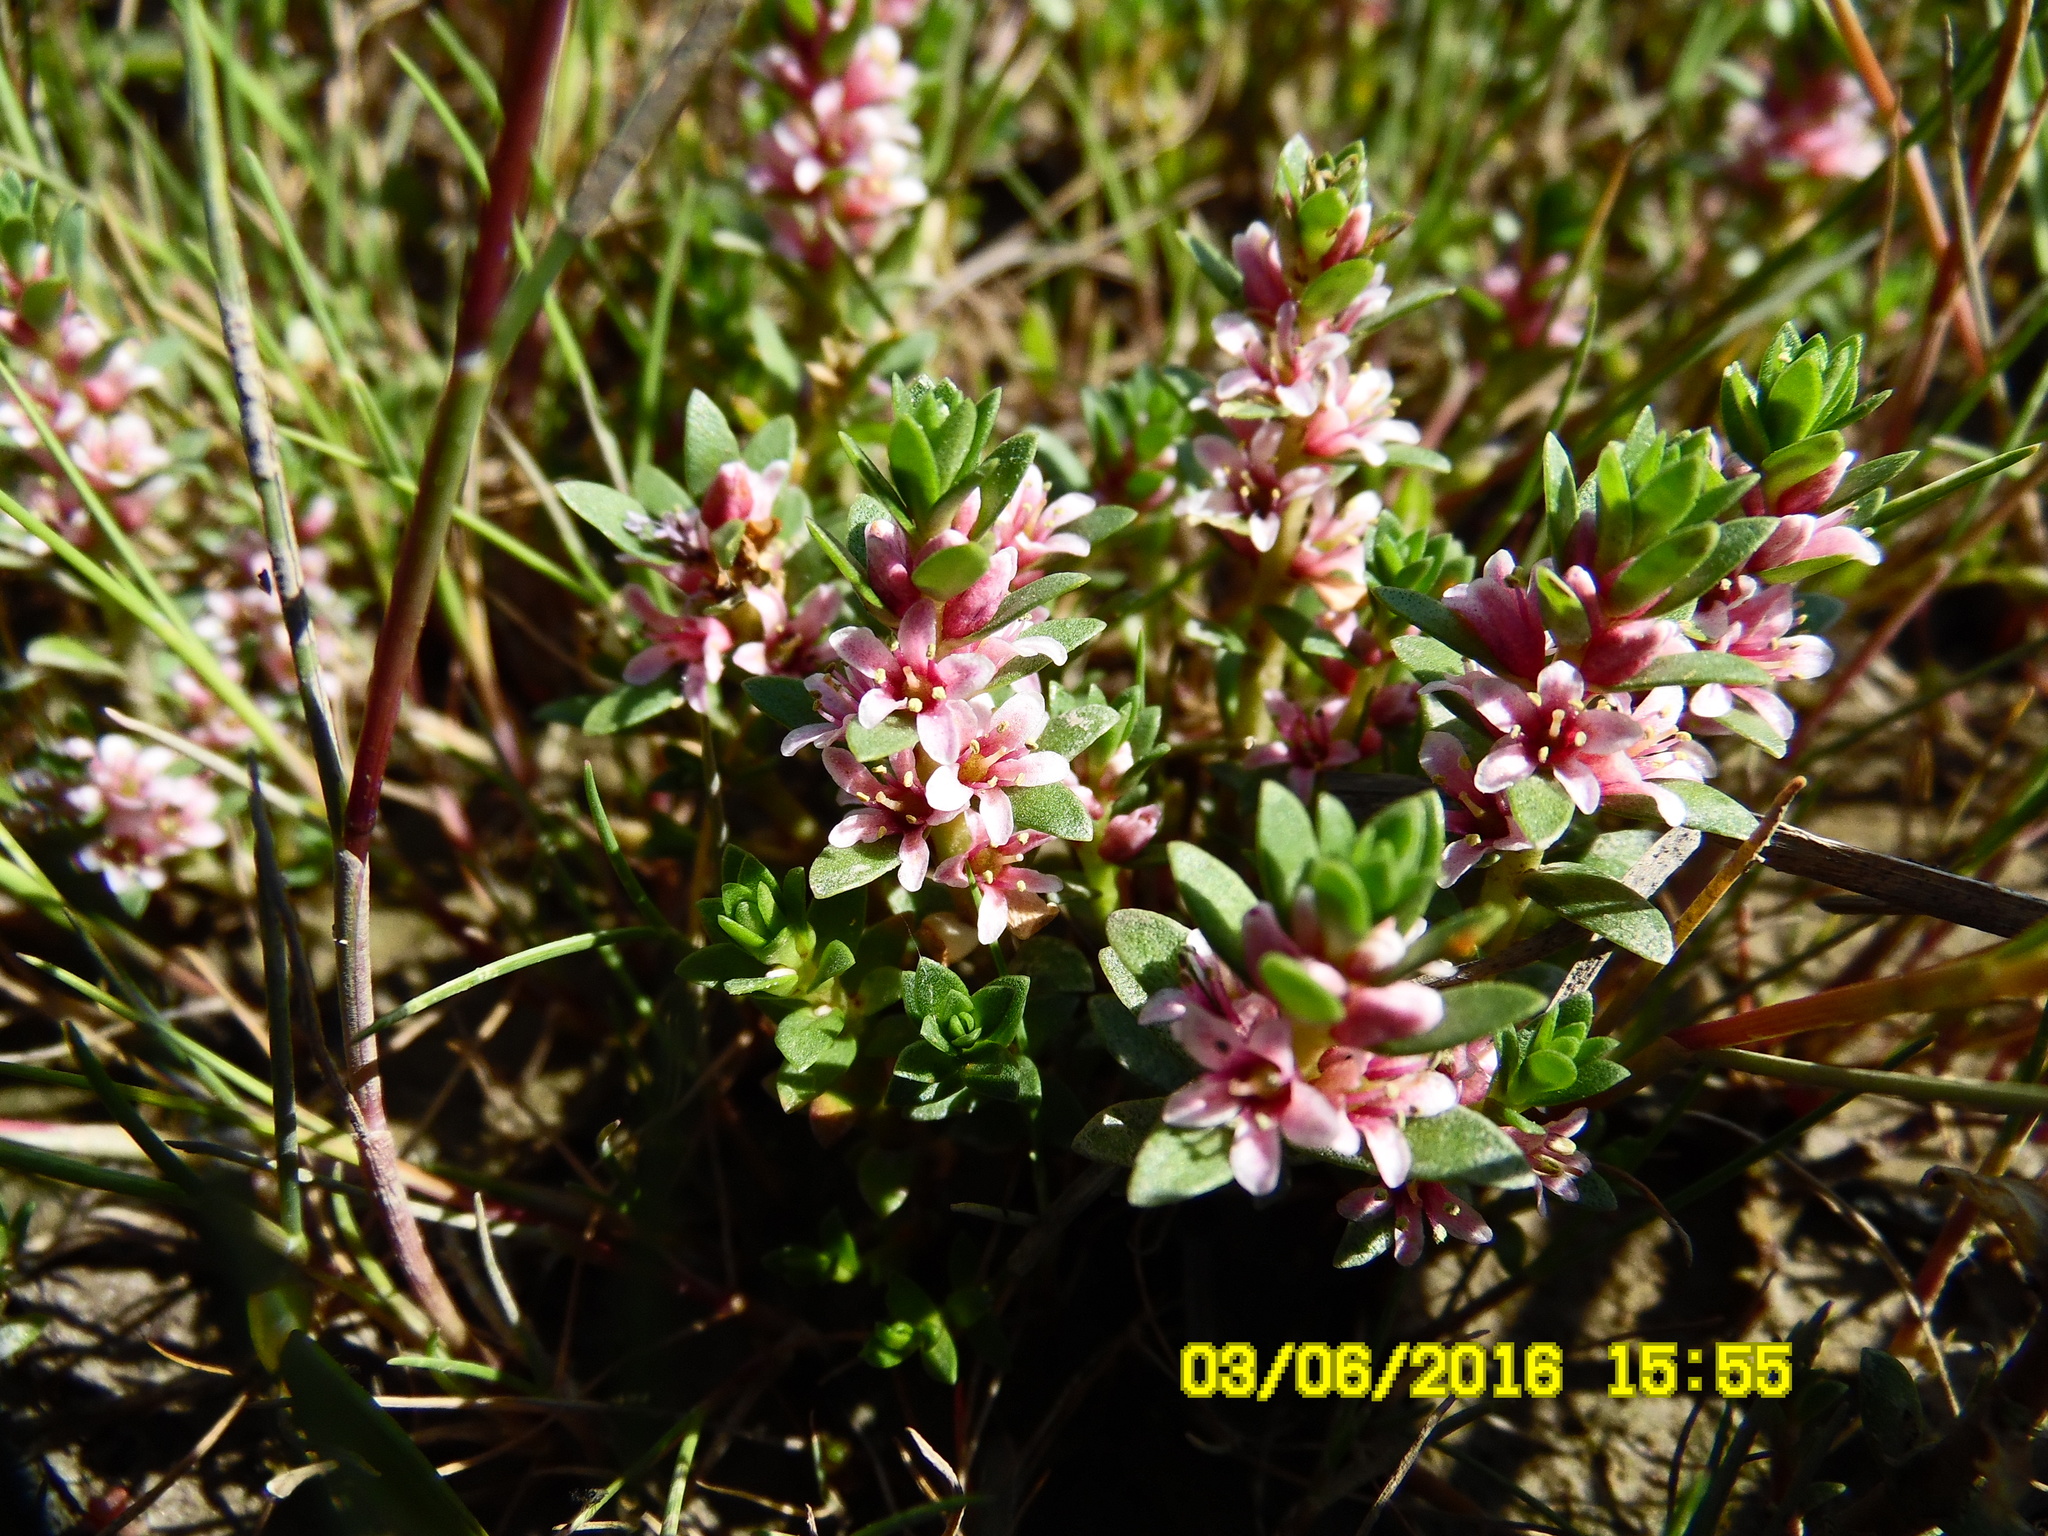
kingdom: Plantae
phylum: Tracheophyta
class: Magnoliopsida
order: Ericales
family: Primulaceae
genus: Lysimachia
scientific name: Lysimachia maritima
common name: Sea milkwort
